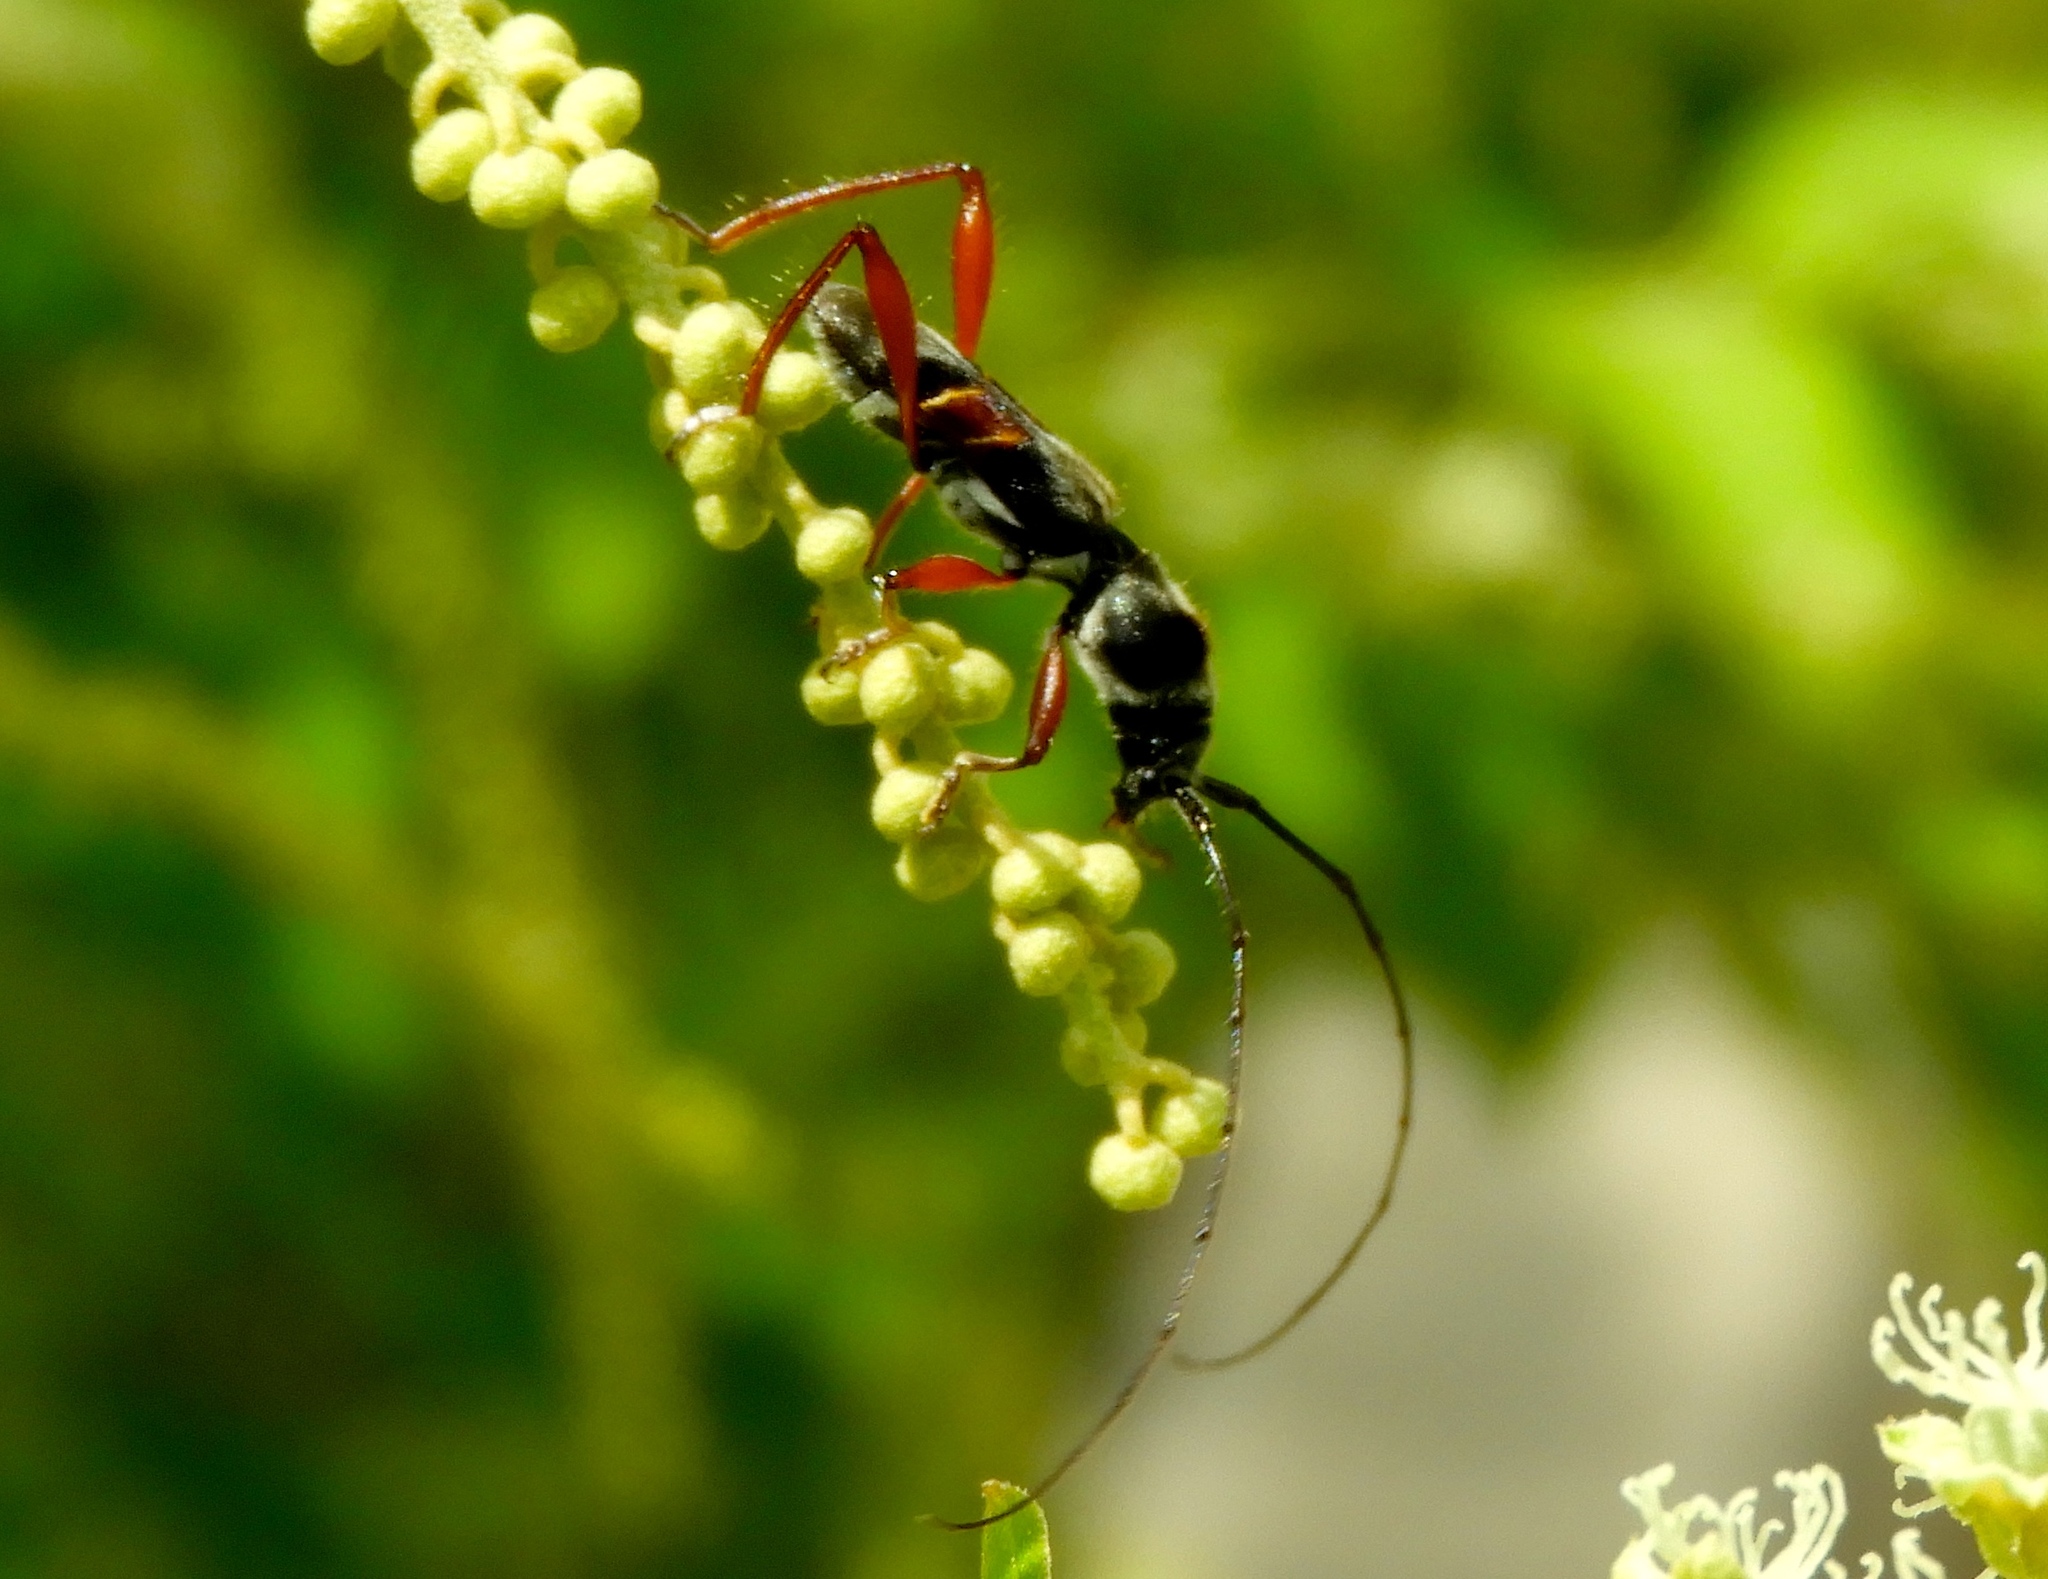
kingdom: Animalia
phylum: Arthropoda
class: Insecta
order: Coleoptera
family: Cerambycidae
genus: Euderces
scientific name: Euderces pulcher
